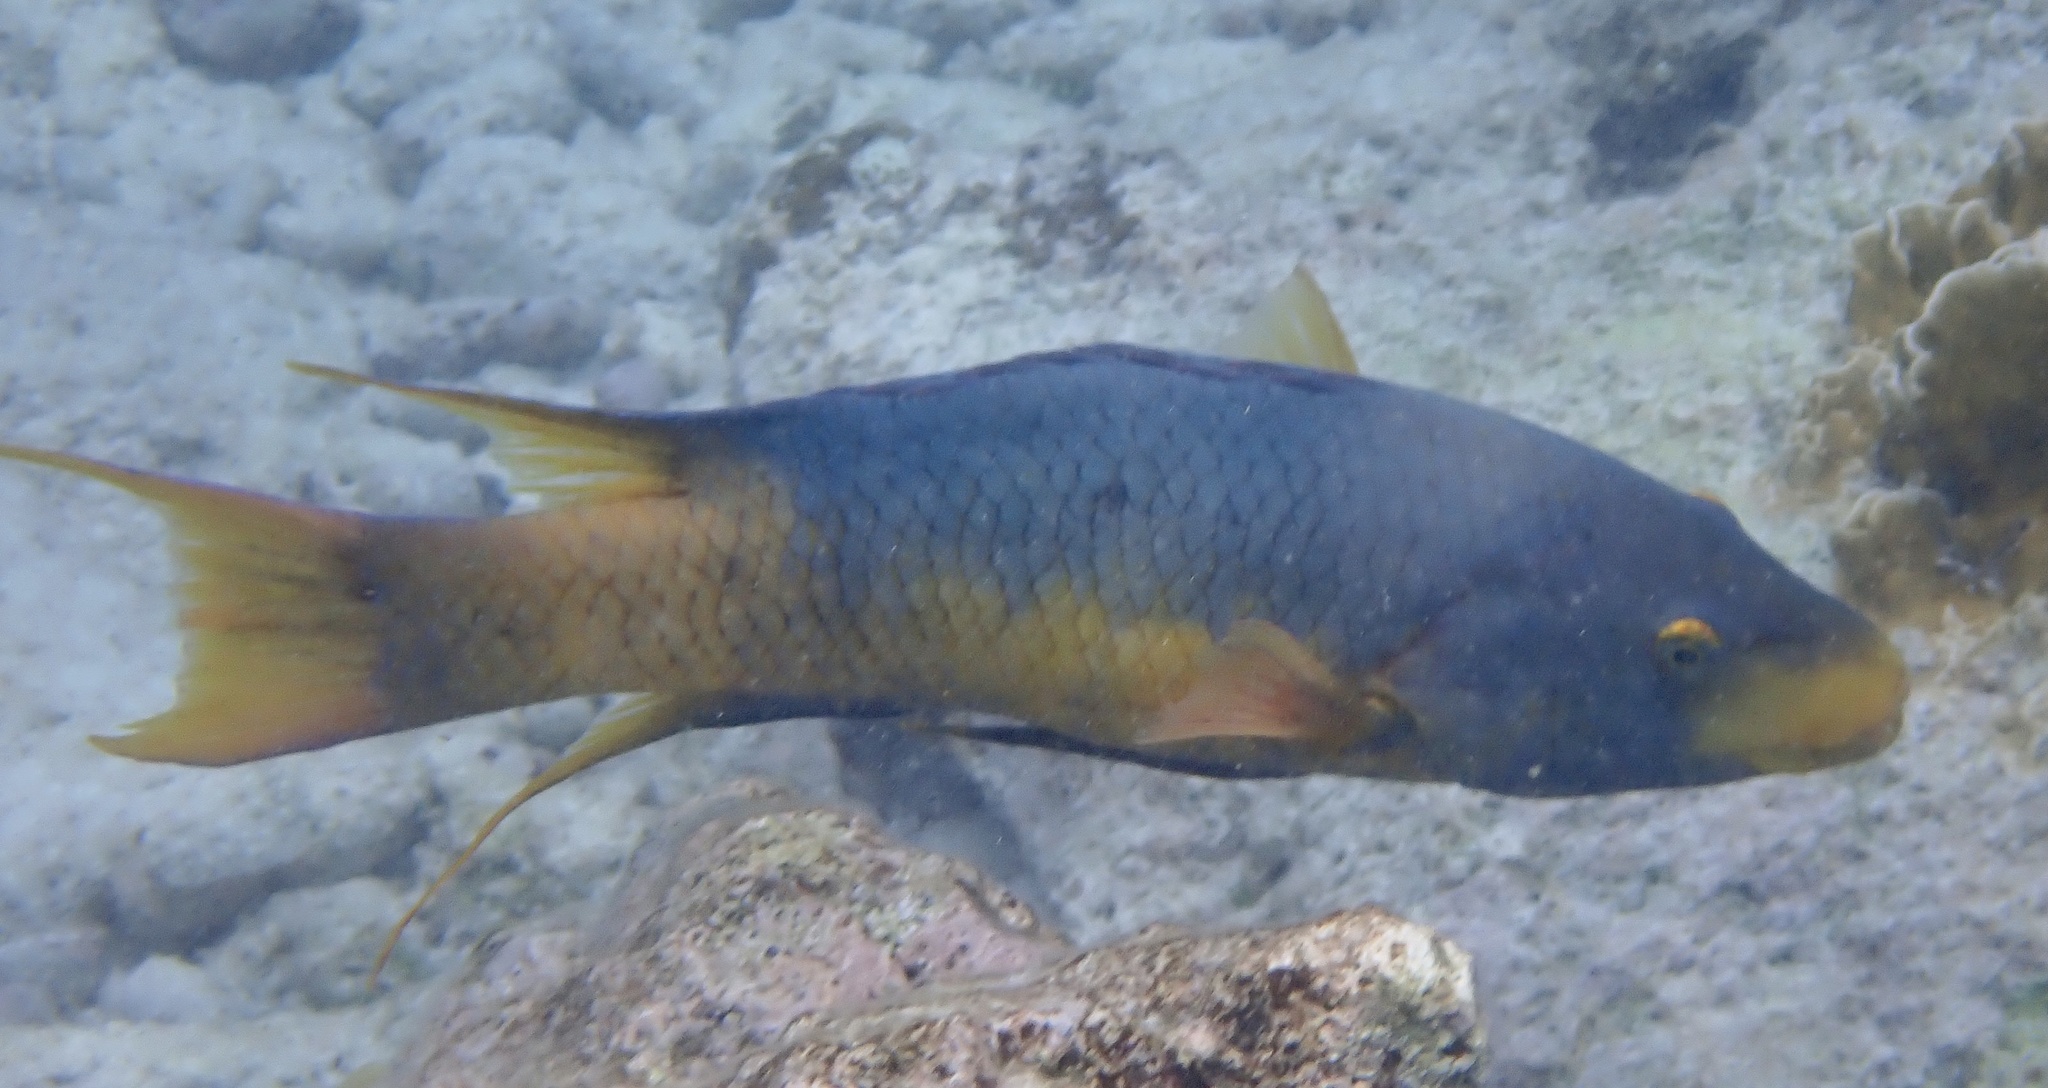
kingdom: Animalia
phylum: Chordata
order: Perciformes
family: Labridae
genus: Bodianus
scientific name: Bodianus rufus
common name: Spanish hogfish
